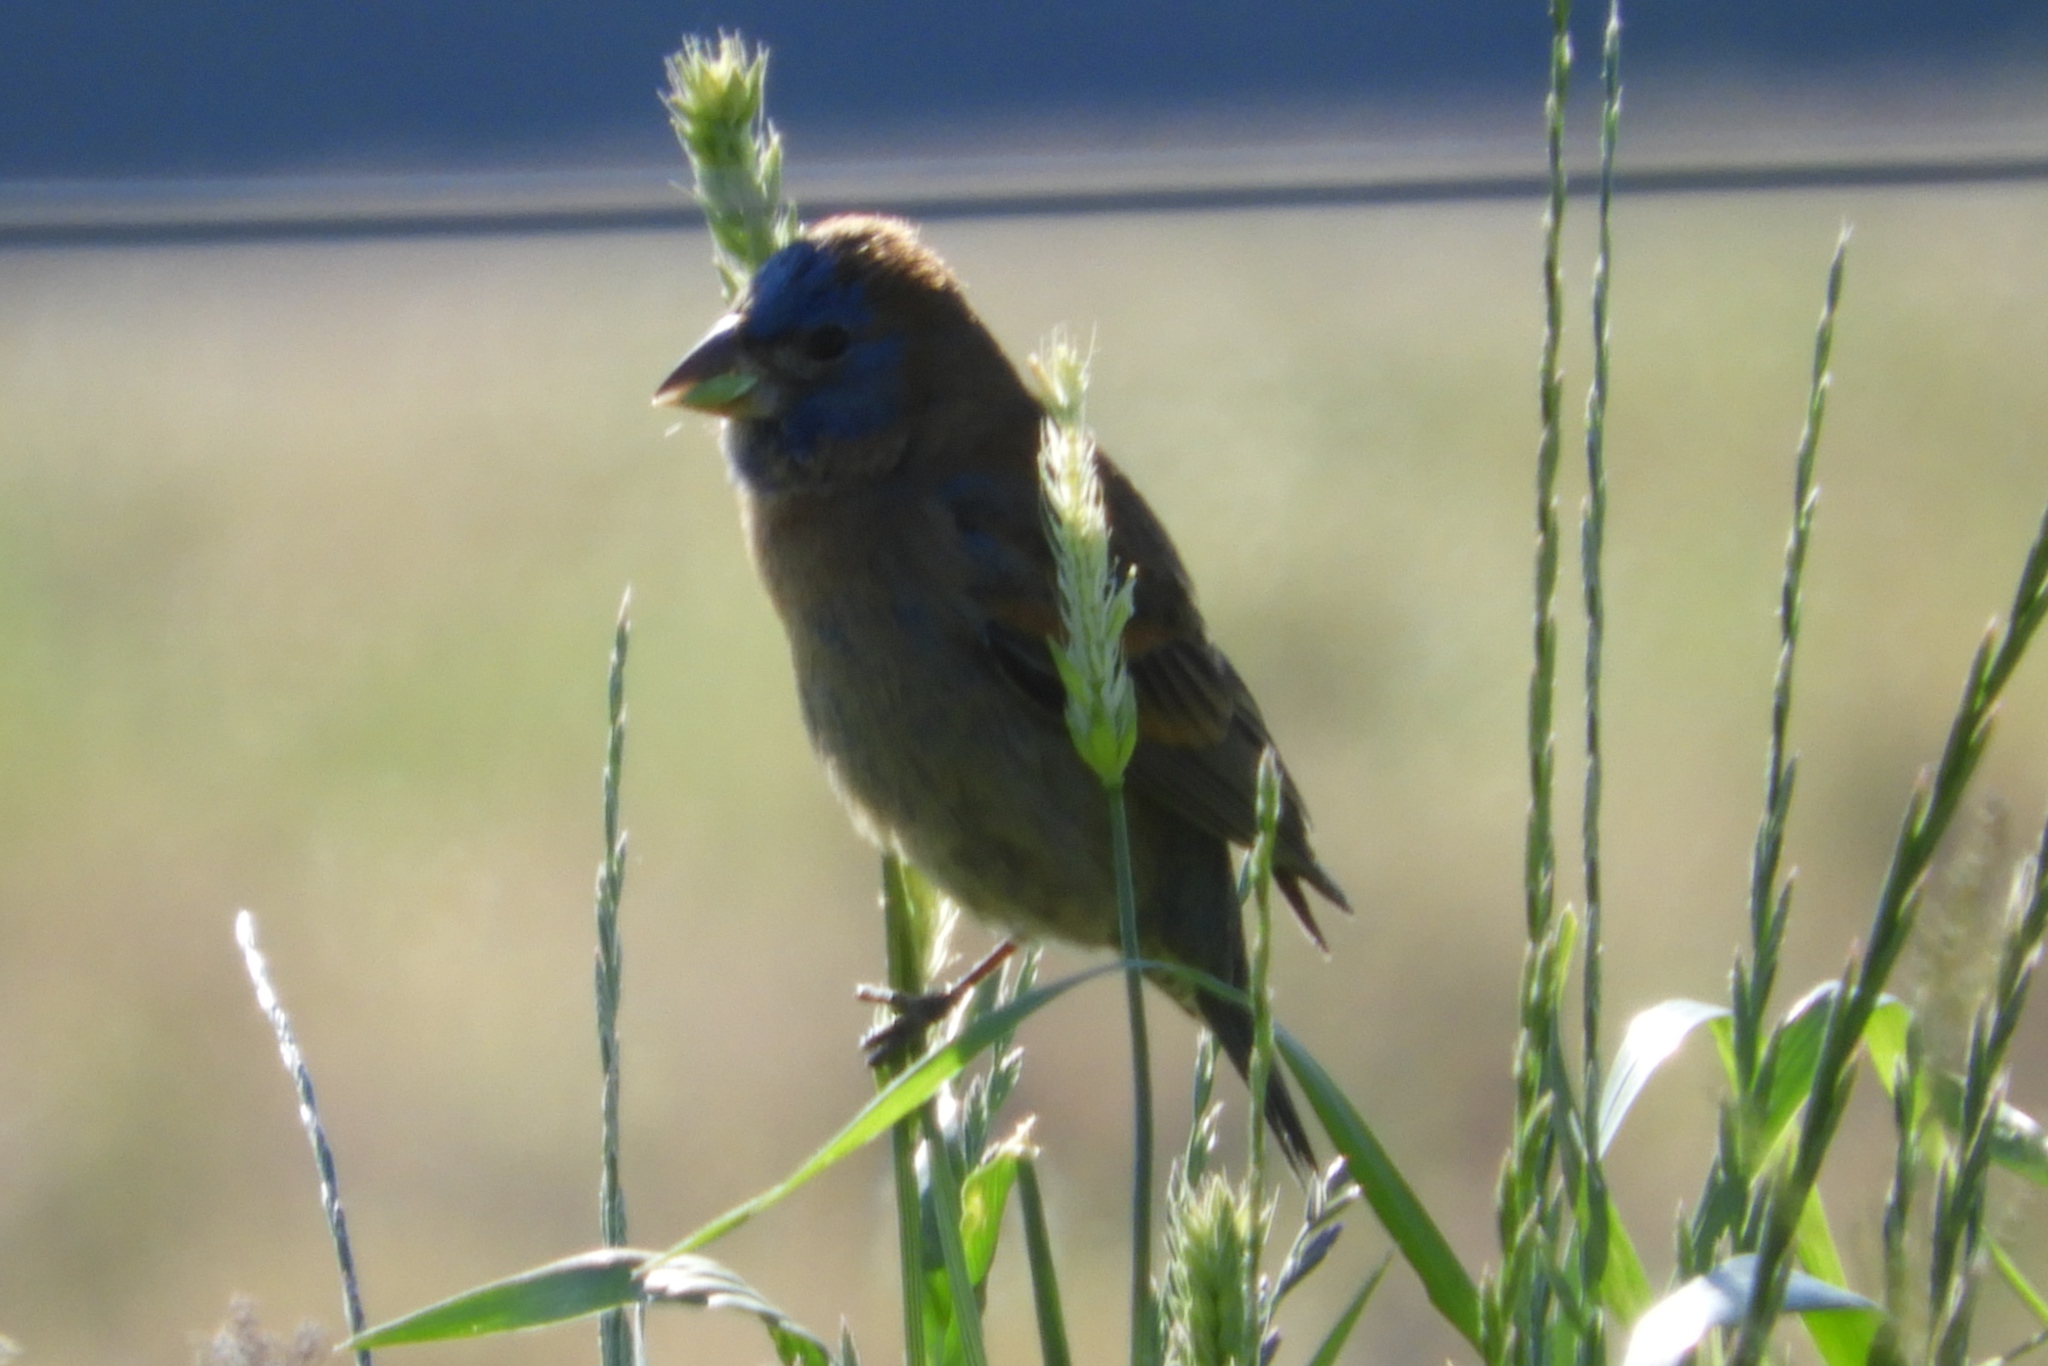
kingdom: Animalia
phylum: Chordata
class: Aves
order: Passeriformes
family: Cardinalidae
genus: Passerina
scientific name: Passerina caerulea
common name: Blue grosbeak
